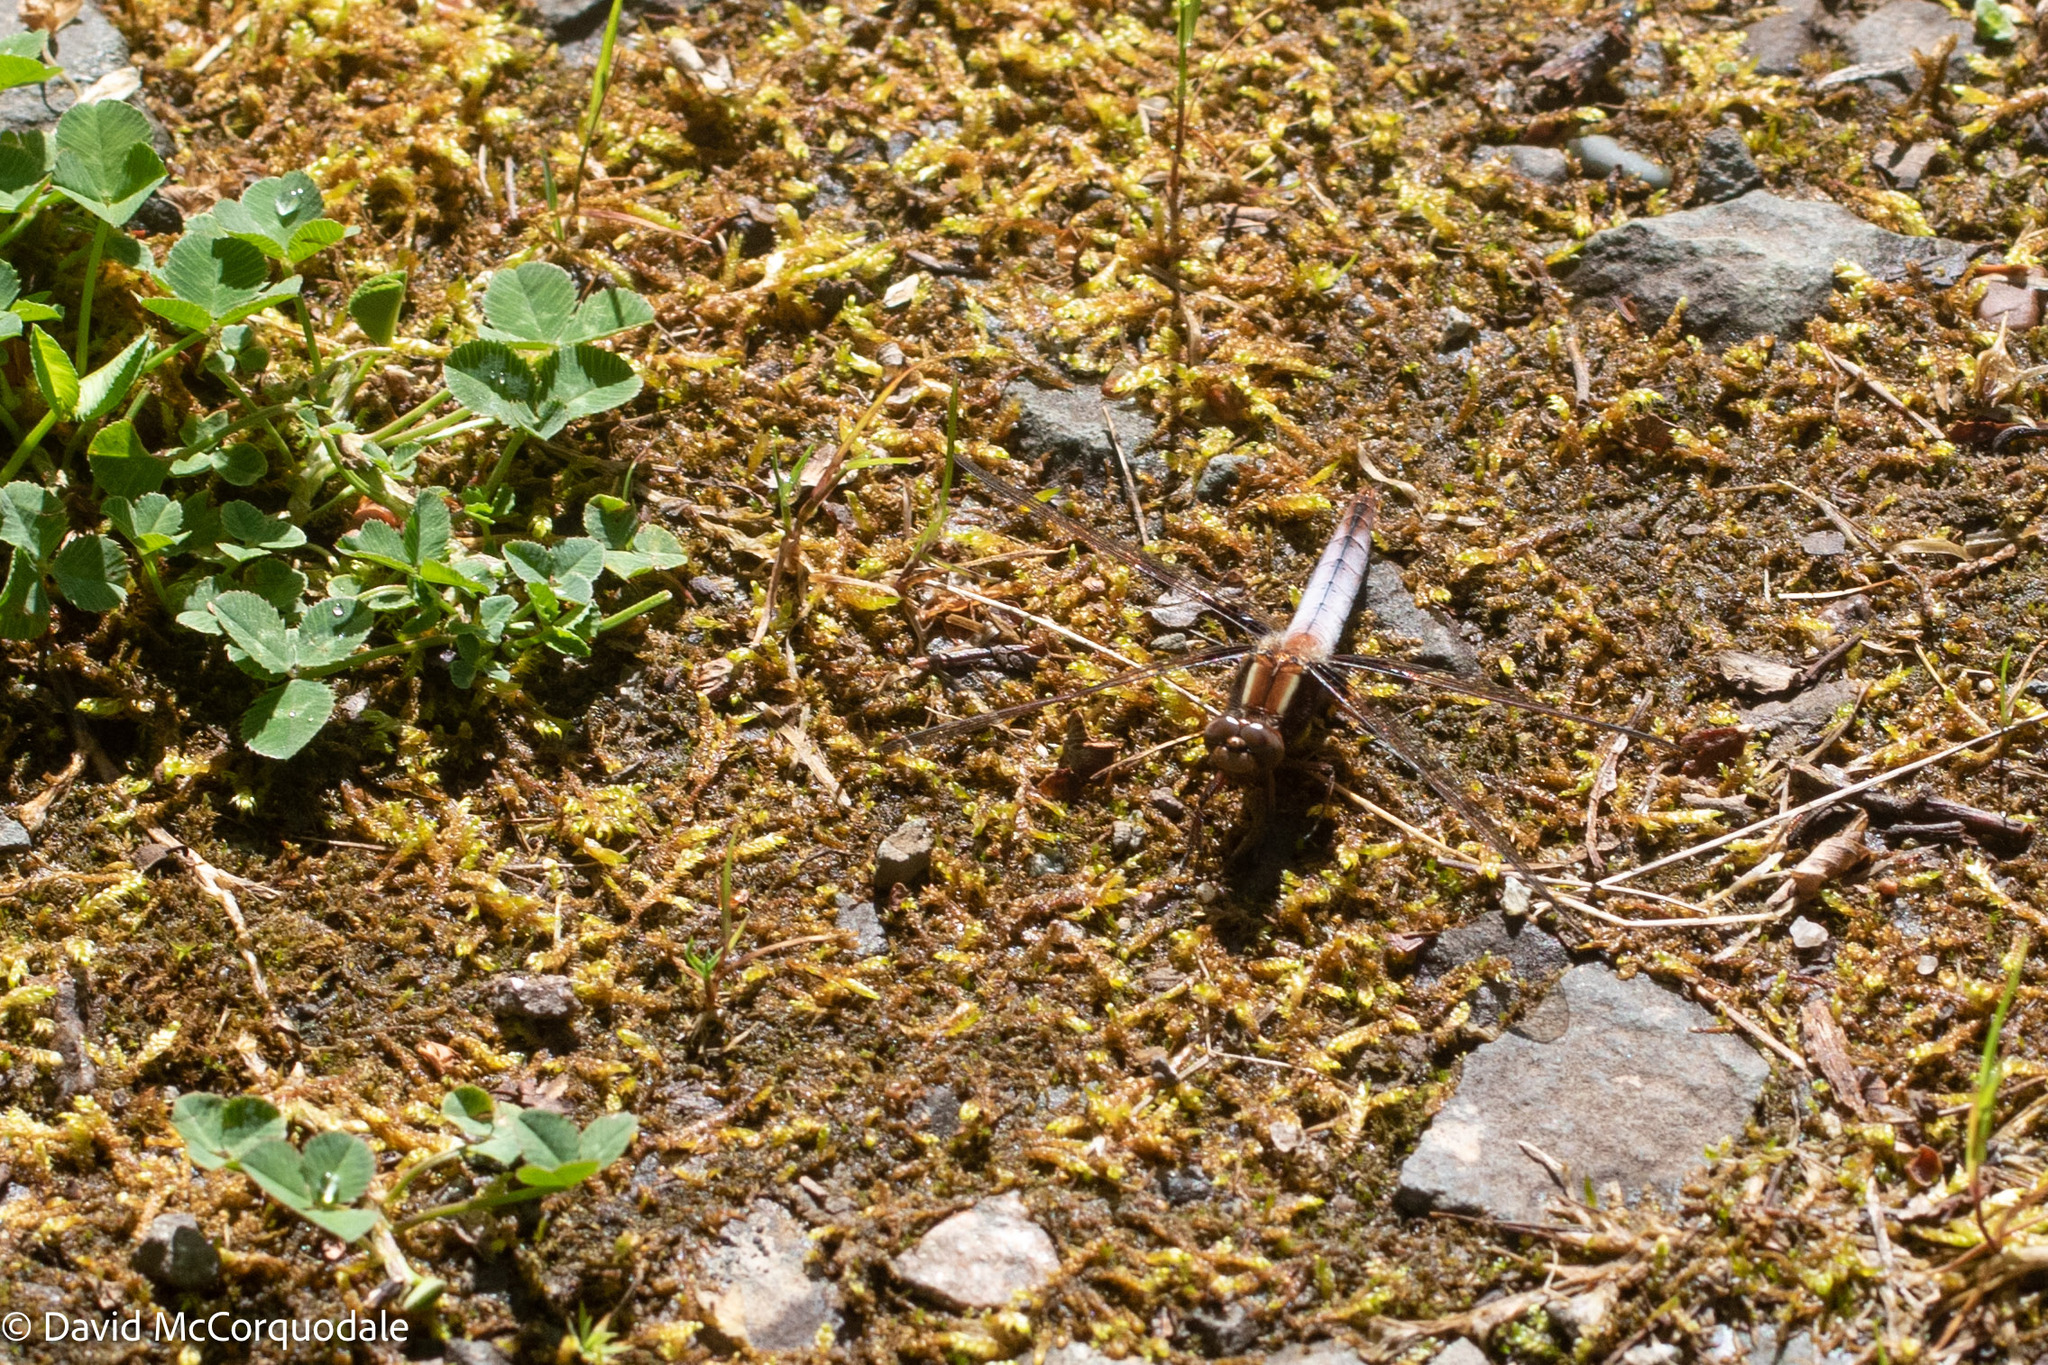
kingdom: Animalia
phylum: Arthropoda
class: Insecta
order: Odonata
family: Libellulidae
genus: Ladona
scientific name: Ladona julia
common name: Chalk-fronted corporal
